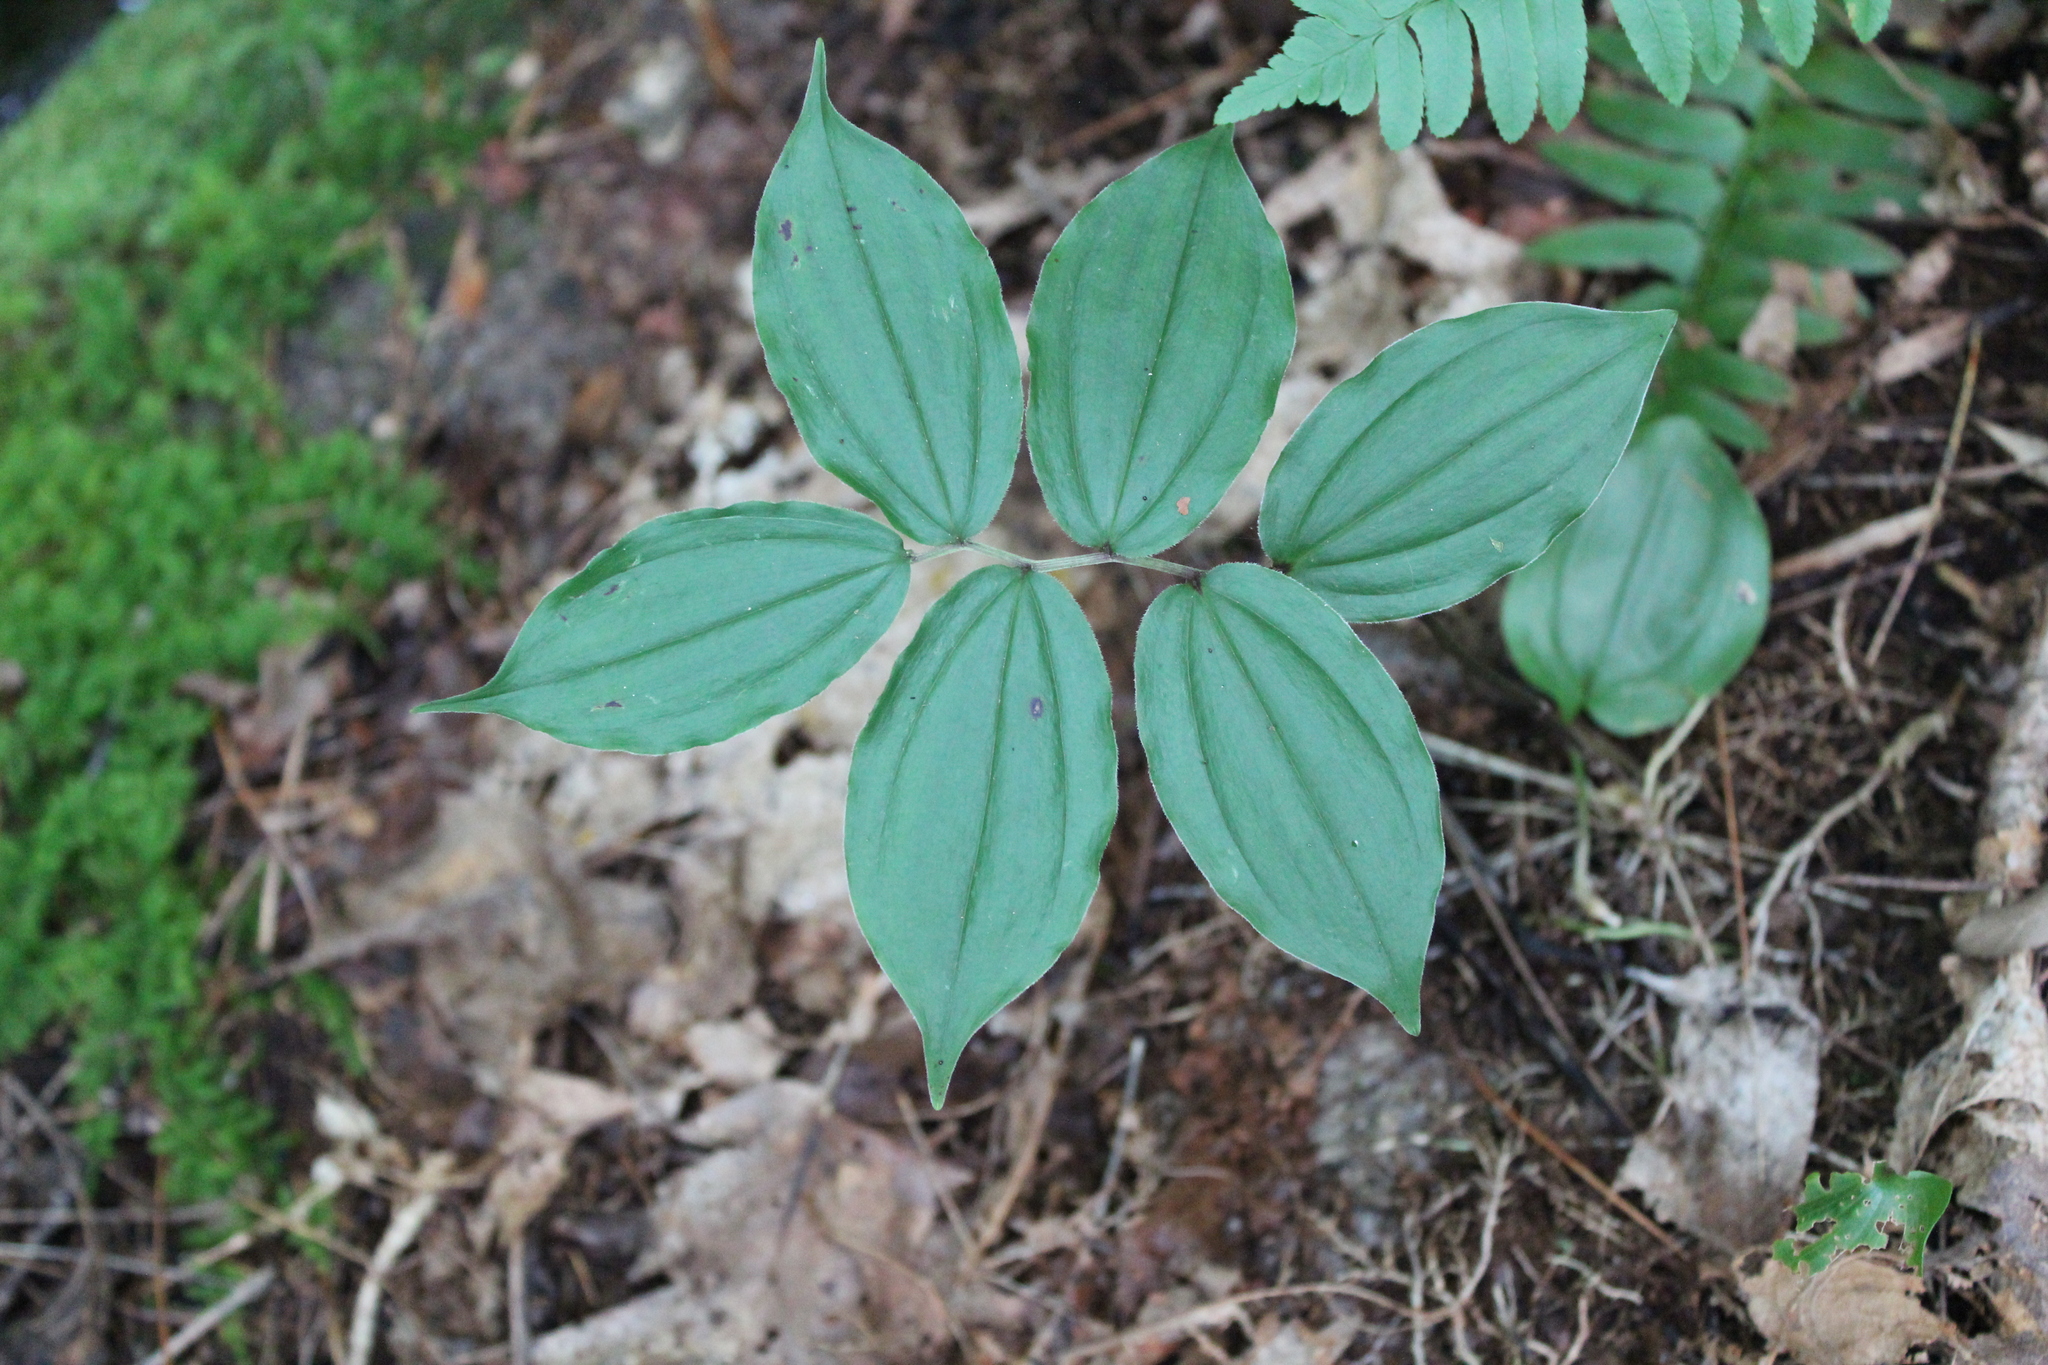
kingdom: Plantae
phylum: Tracheophyta
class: Liliopsida
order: Asparagales
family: Asparagaceae
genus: Maianthemum
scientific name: Maianthemum racemosum
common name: False spikenard
